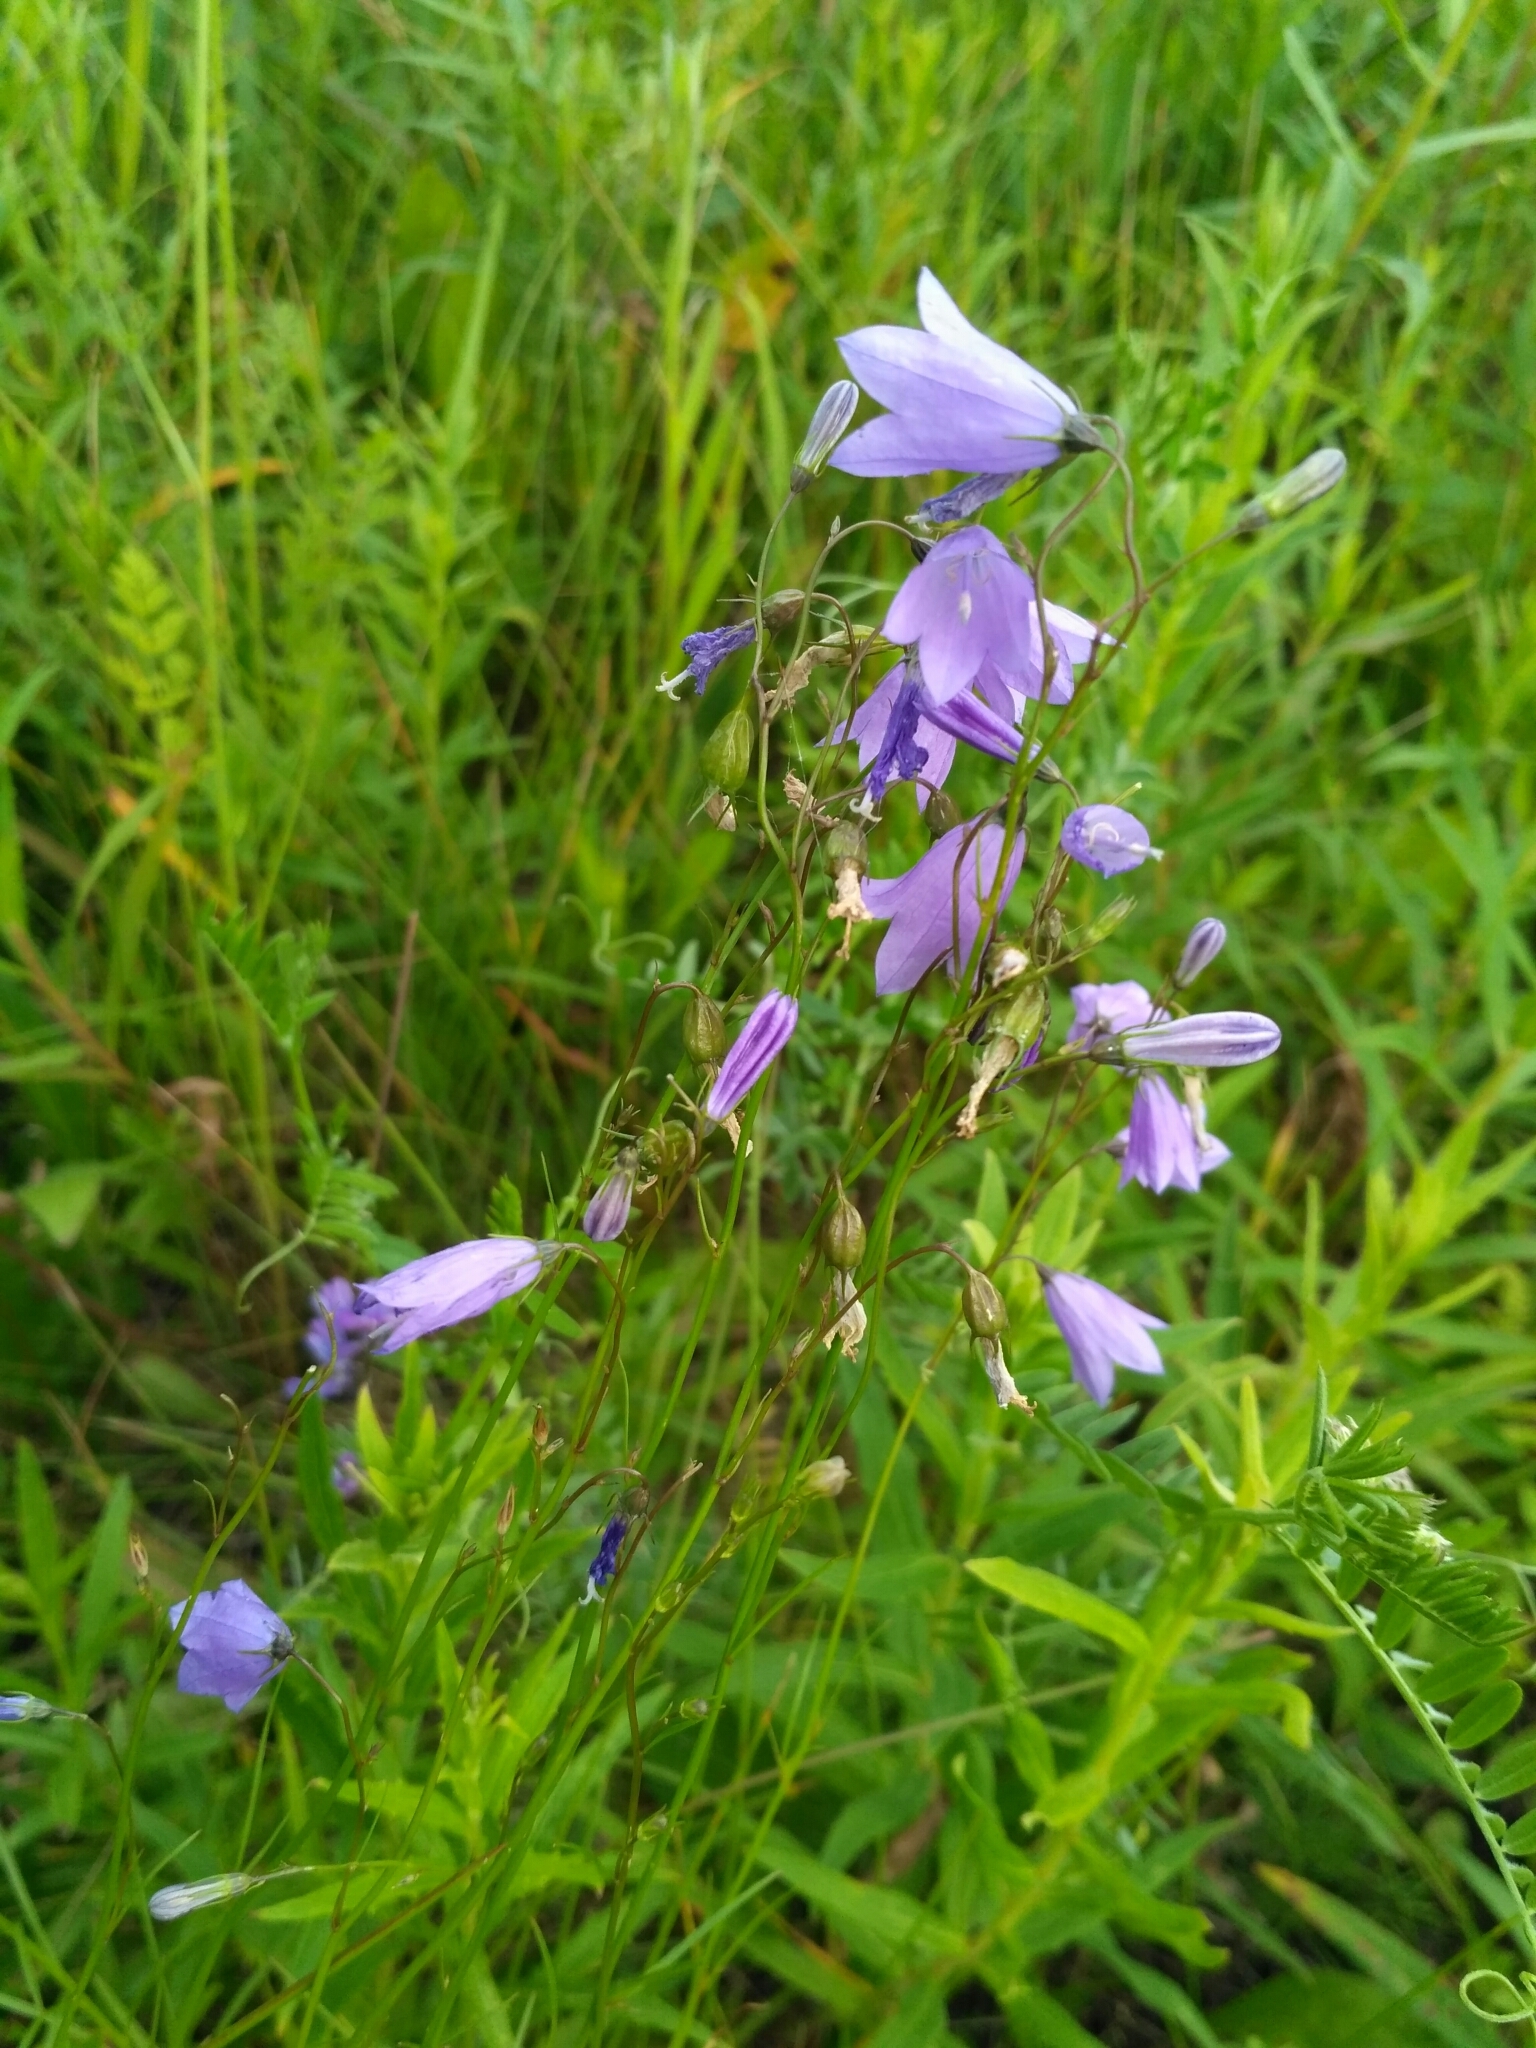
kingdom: Plantae
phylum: Tracheophyta
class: Magnoliopsida
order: Asterales
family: Campanulaceae
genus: Campanula
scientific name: Campanula rotundifolia
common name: Harebell
